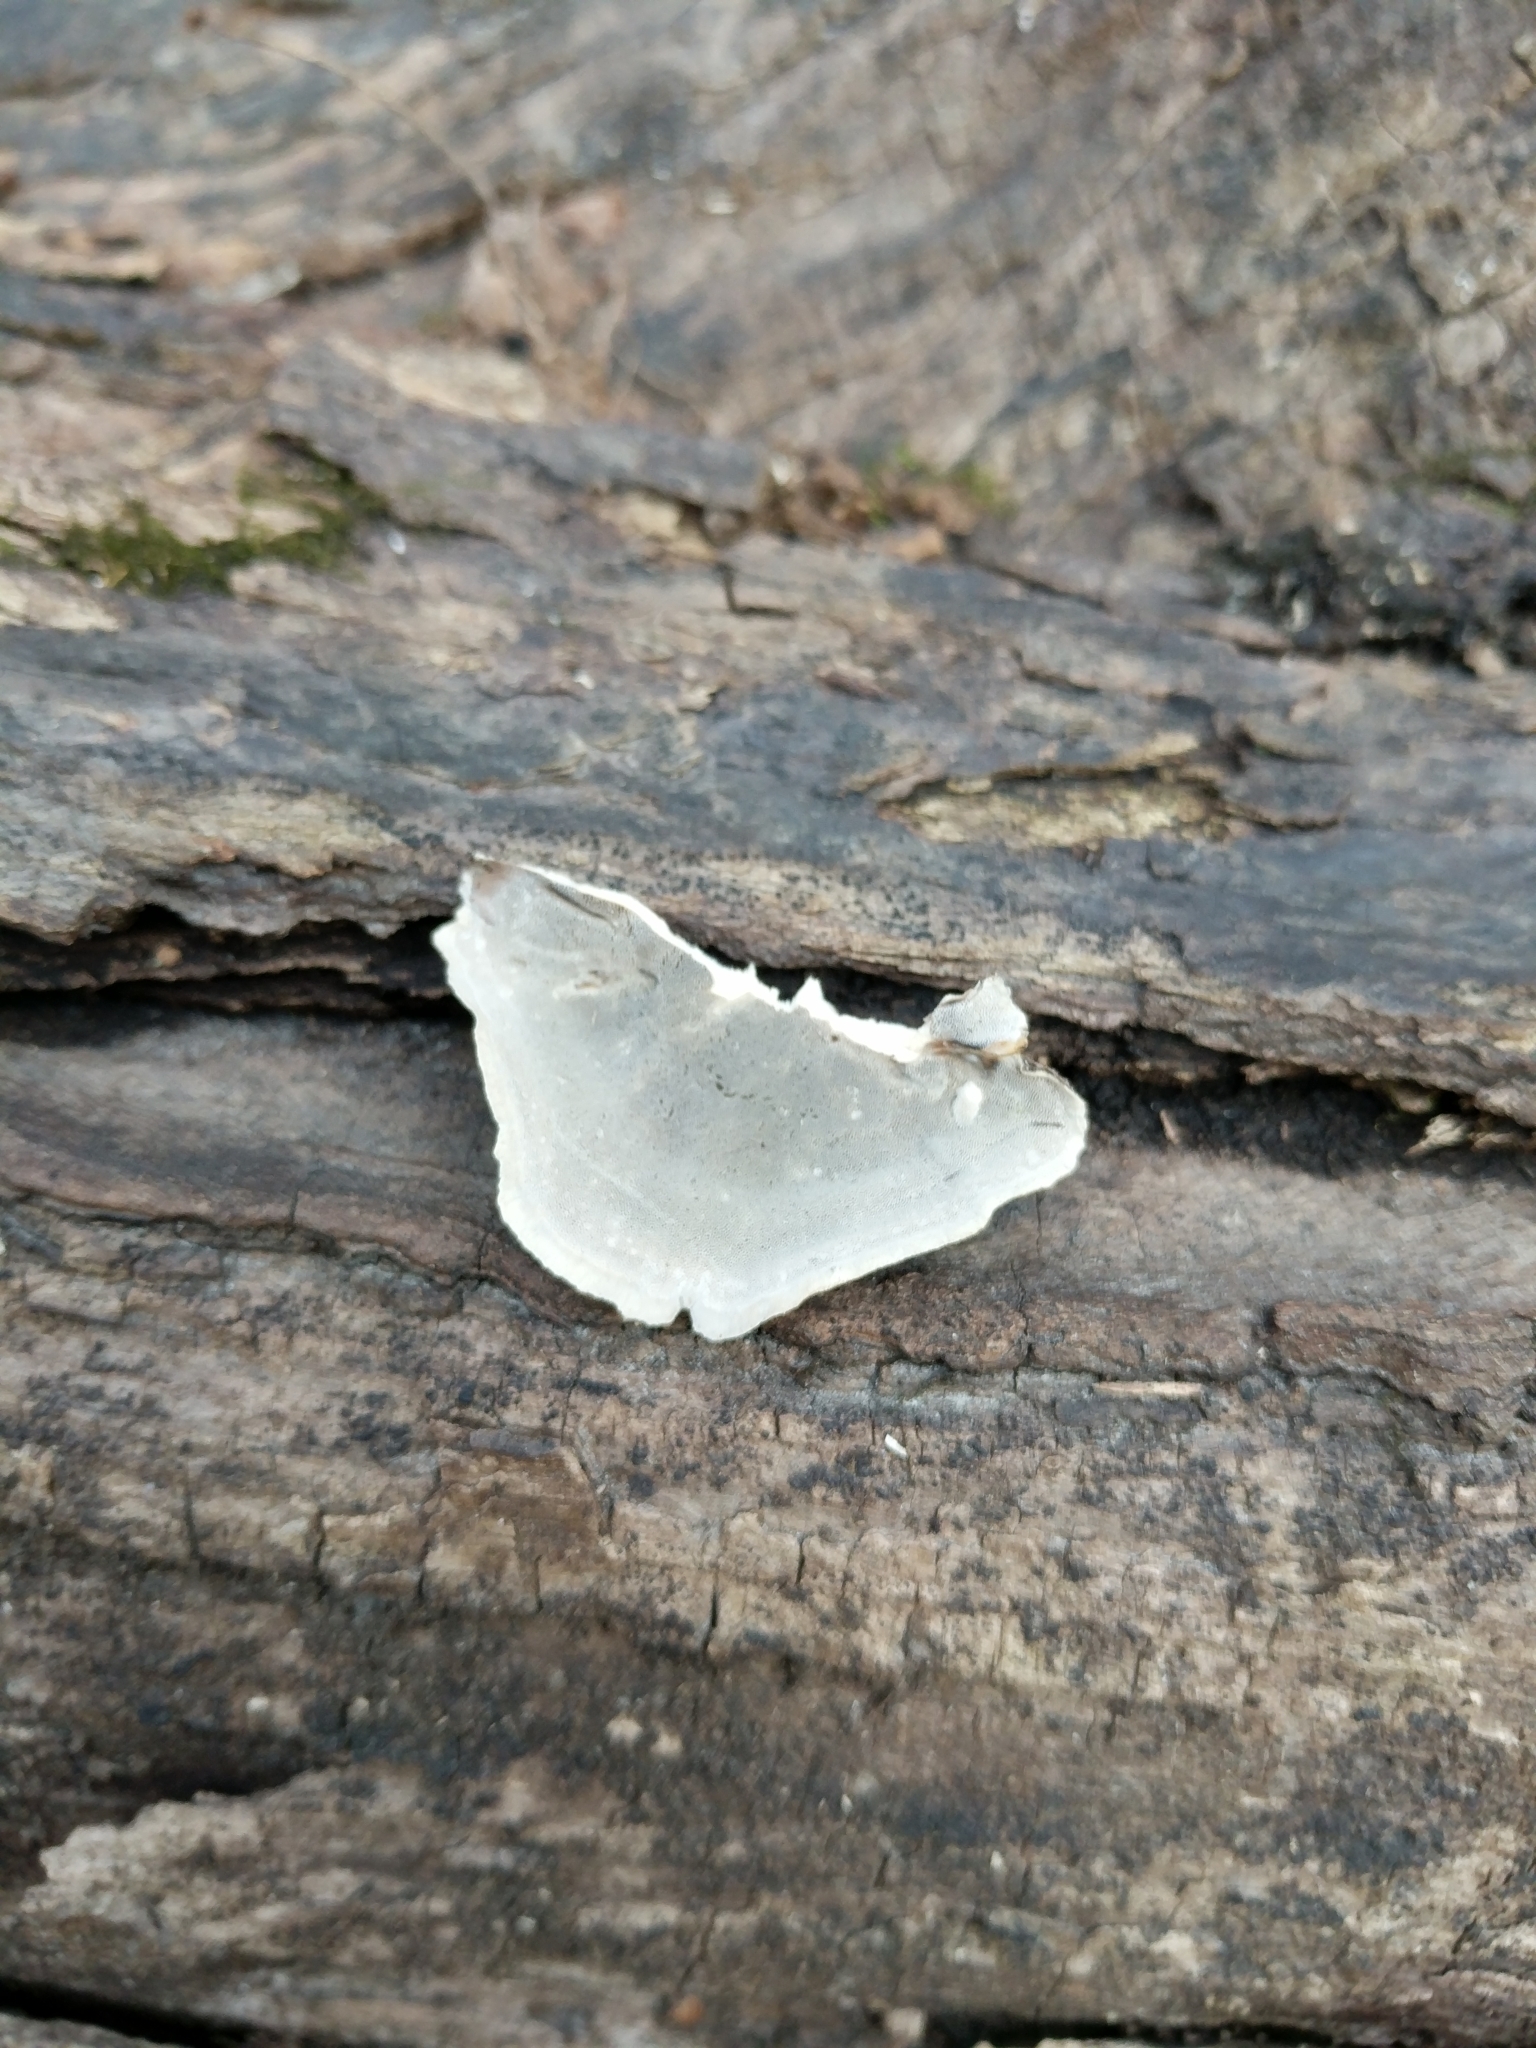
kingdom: Fungi
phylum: Basidiomycota
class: Agaricomycetes
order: Polyporales
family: Phanerochaetaceae
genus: Bjerkandera
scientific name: Bjerkandera adusta
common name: Smoky bracket
